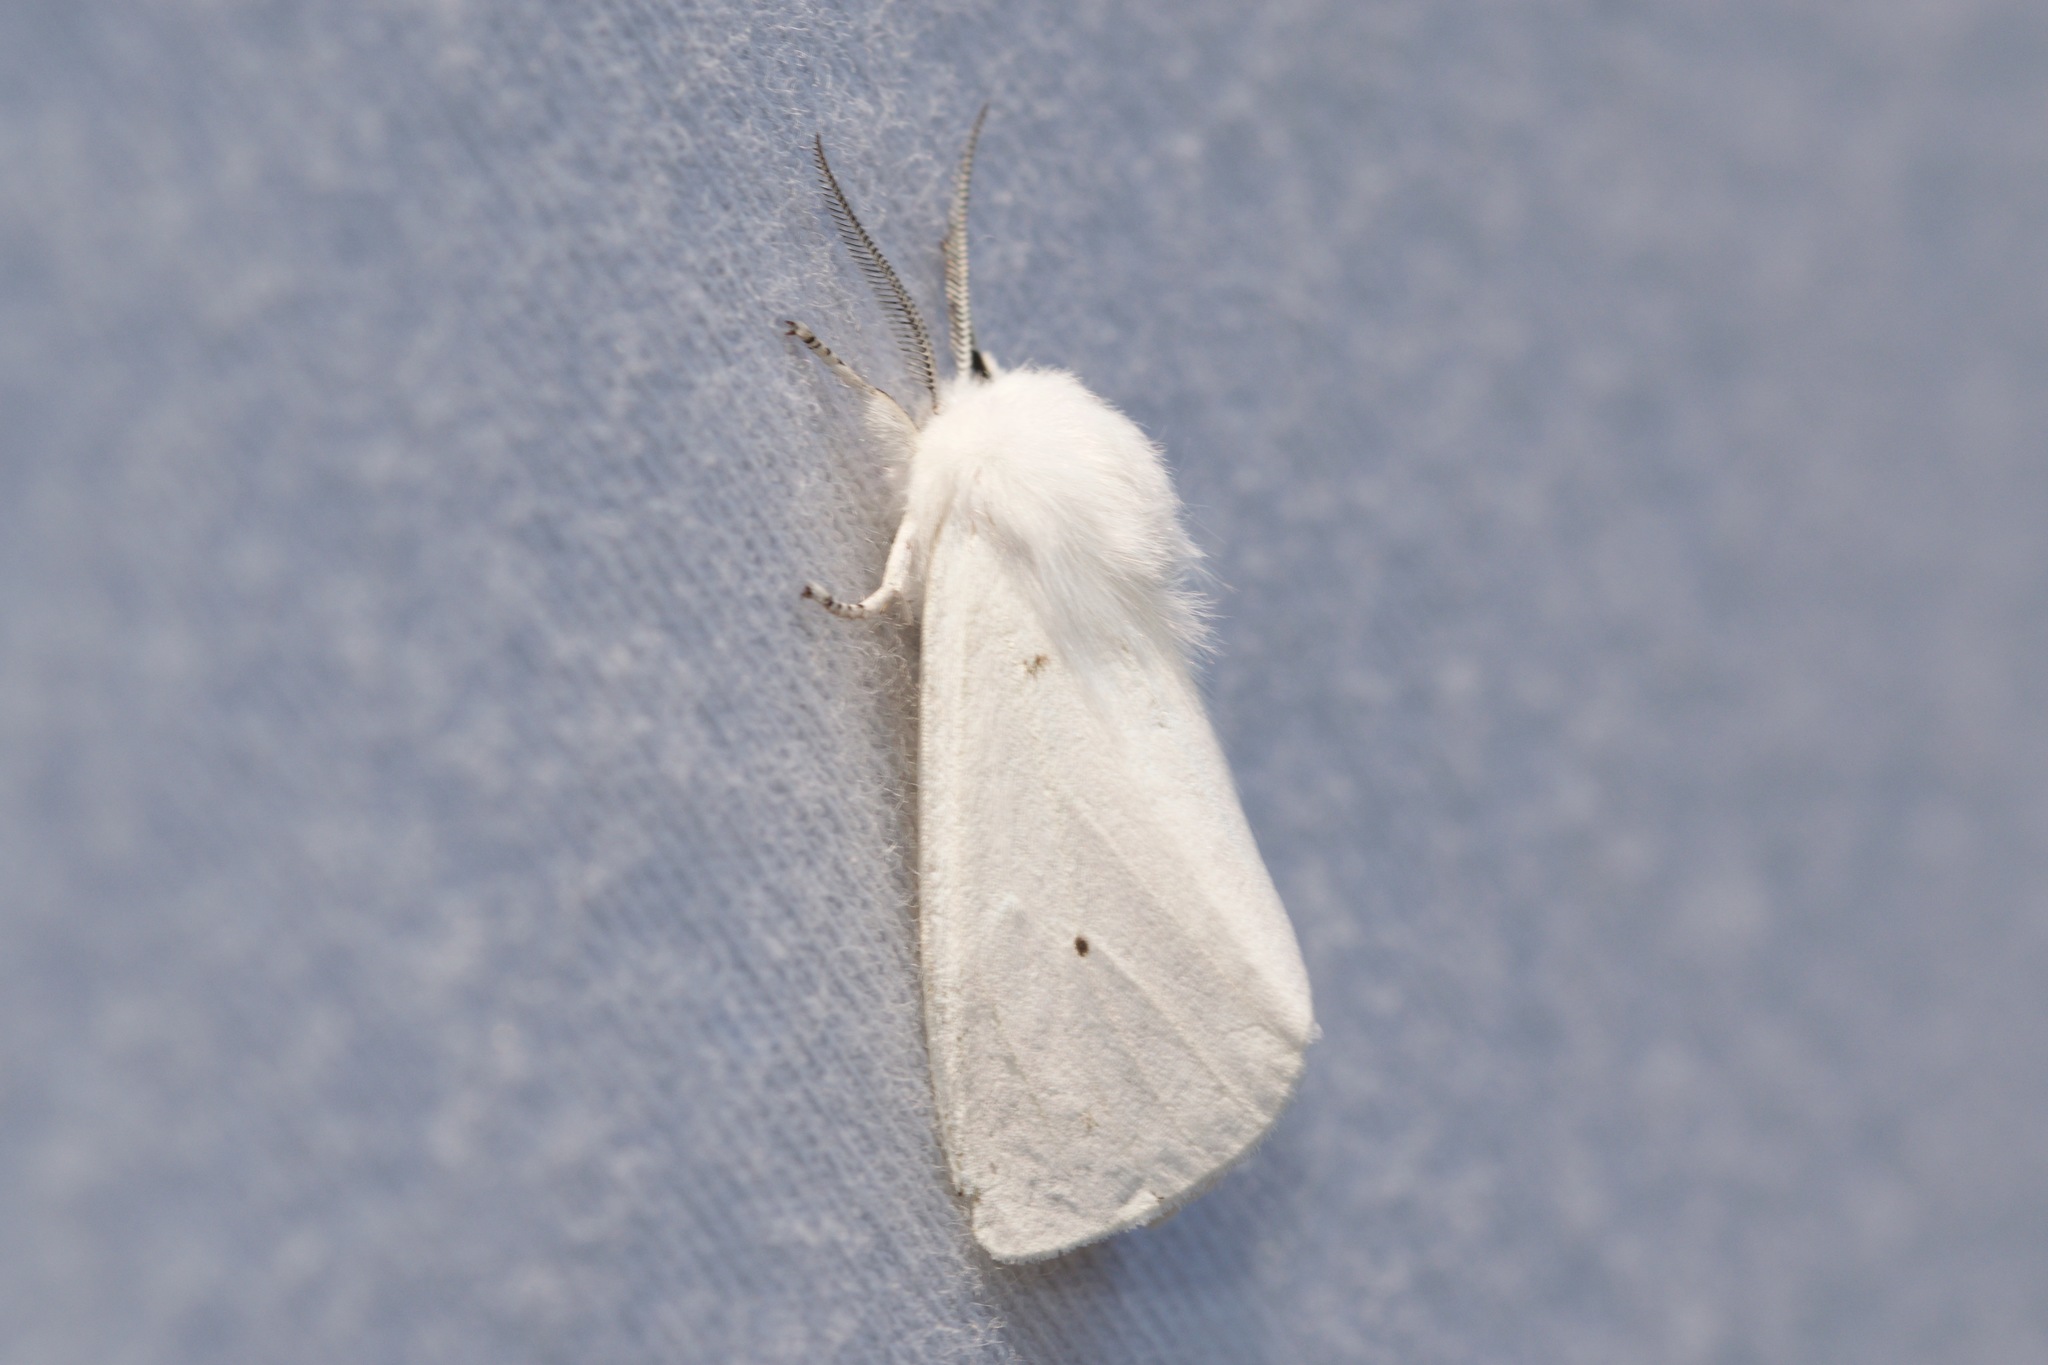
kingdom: Animalia
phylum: Arthropoda
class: Insecta
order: Lepidoptera
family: Erebidae
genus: Spilosoma
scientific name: Spilosoma virginica
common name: Virginia tiger moth
